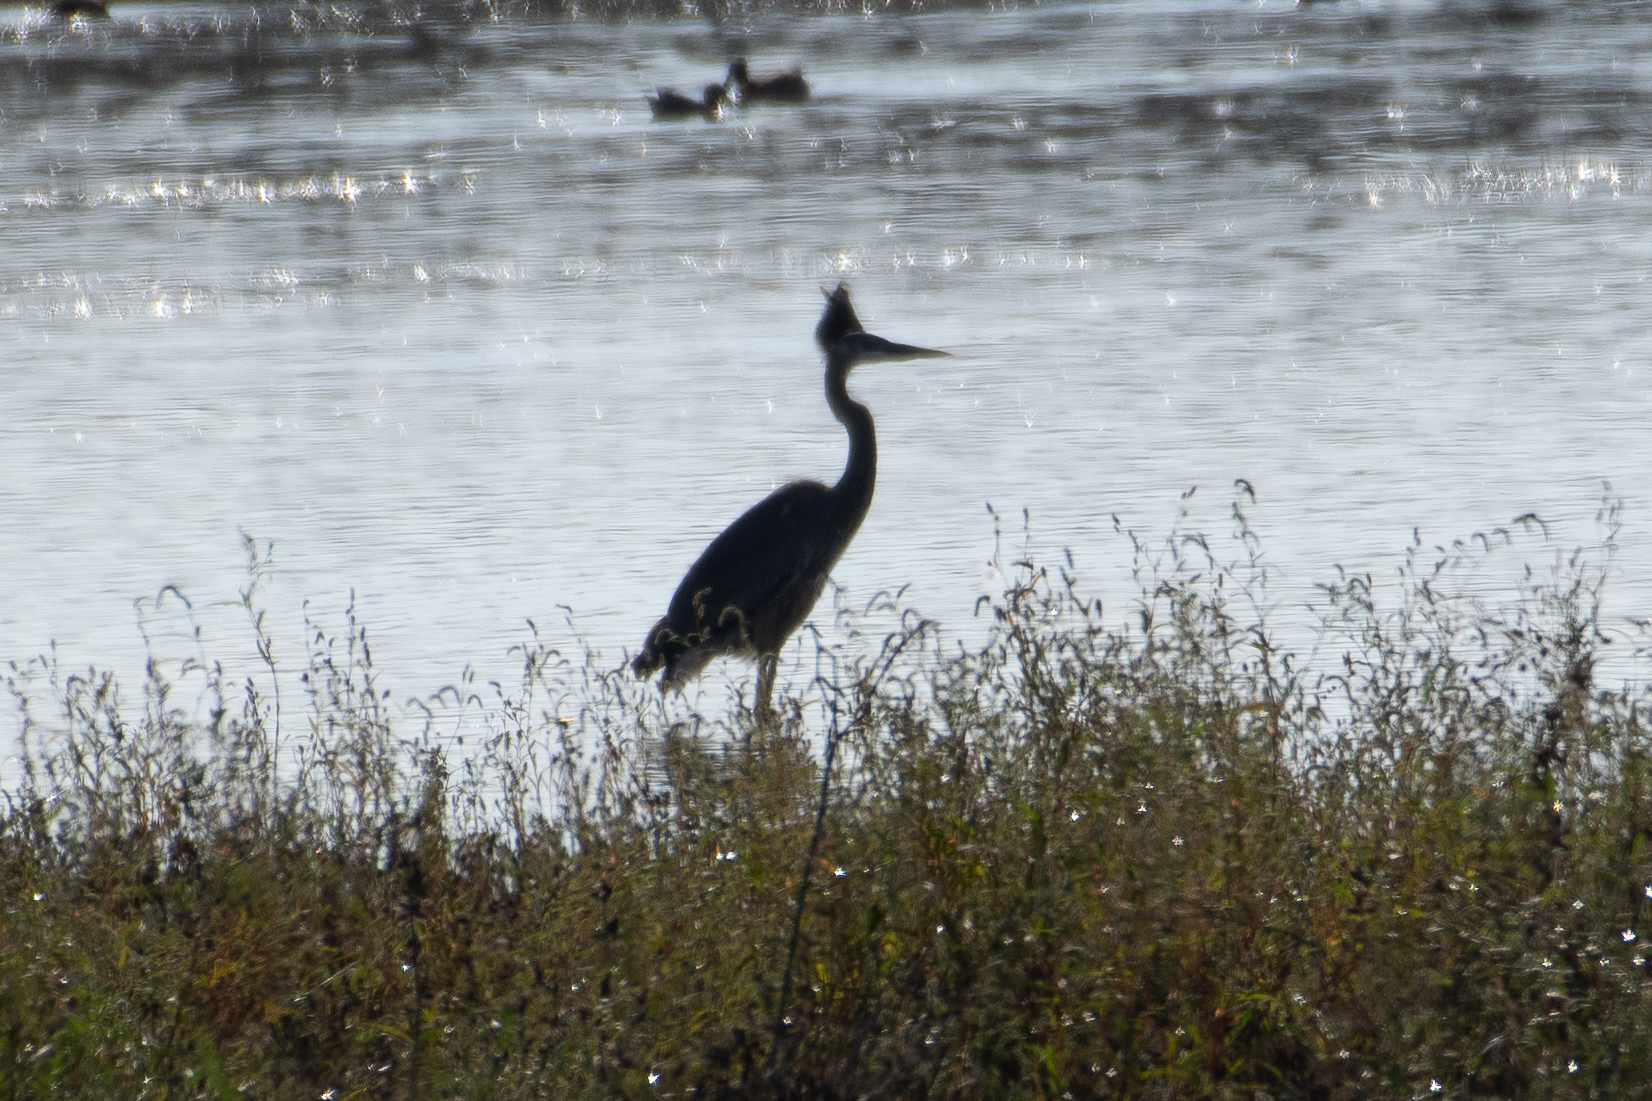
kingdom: Animalia
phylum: Chordata
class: Aves
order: Pelecaniformes
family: Ardeidae
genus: Ardea
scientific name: Ardea herodias
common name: Great blue heron
